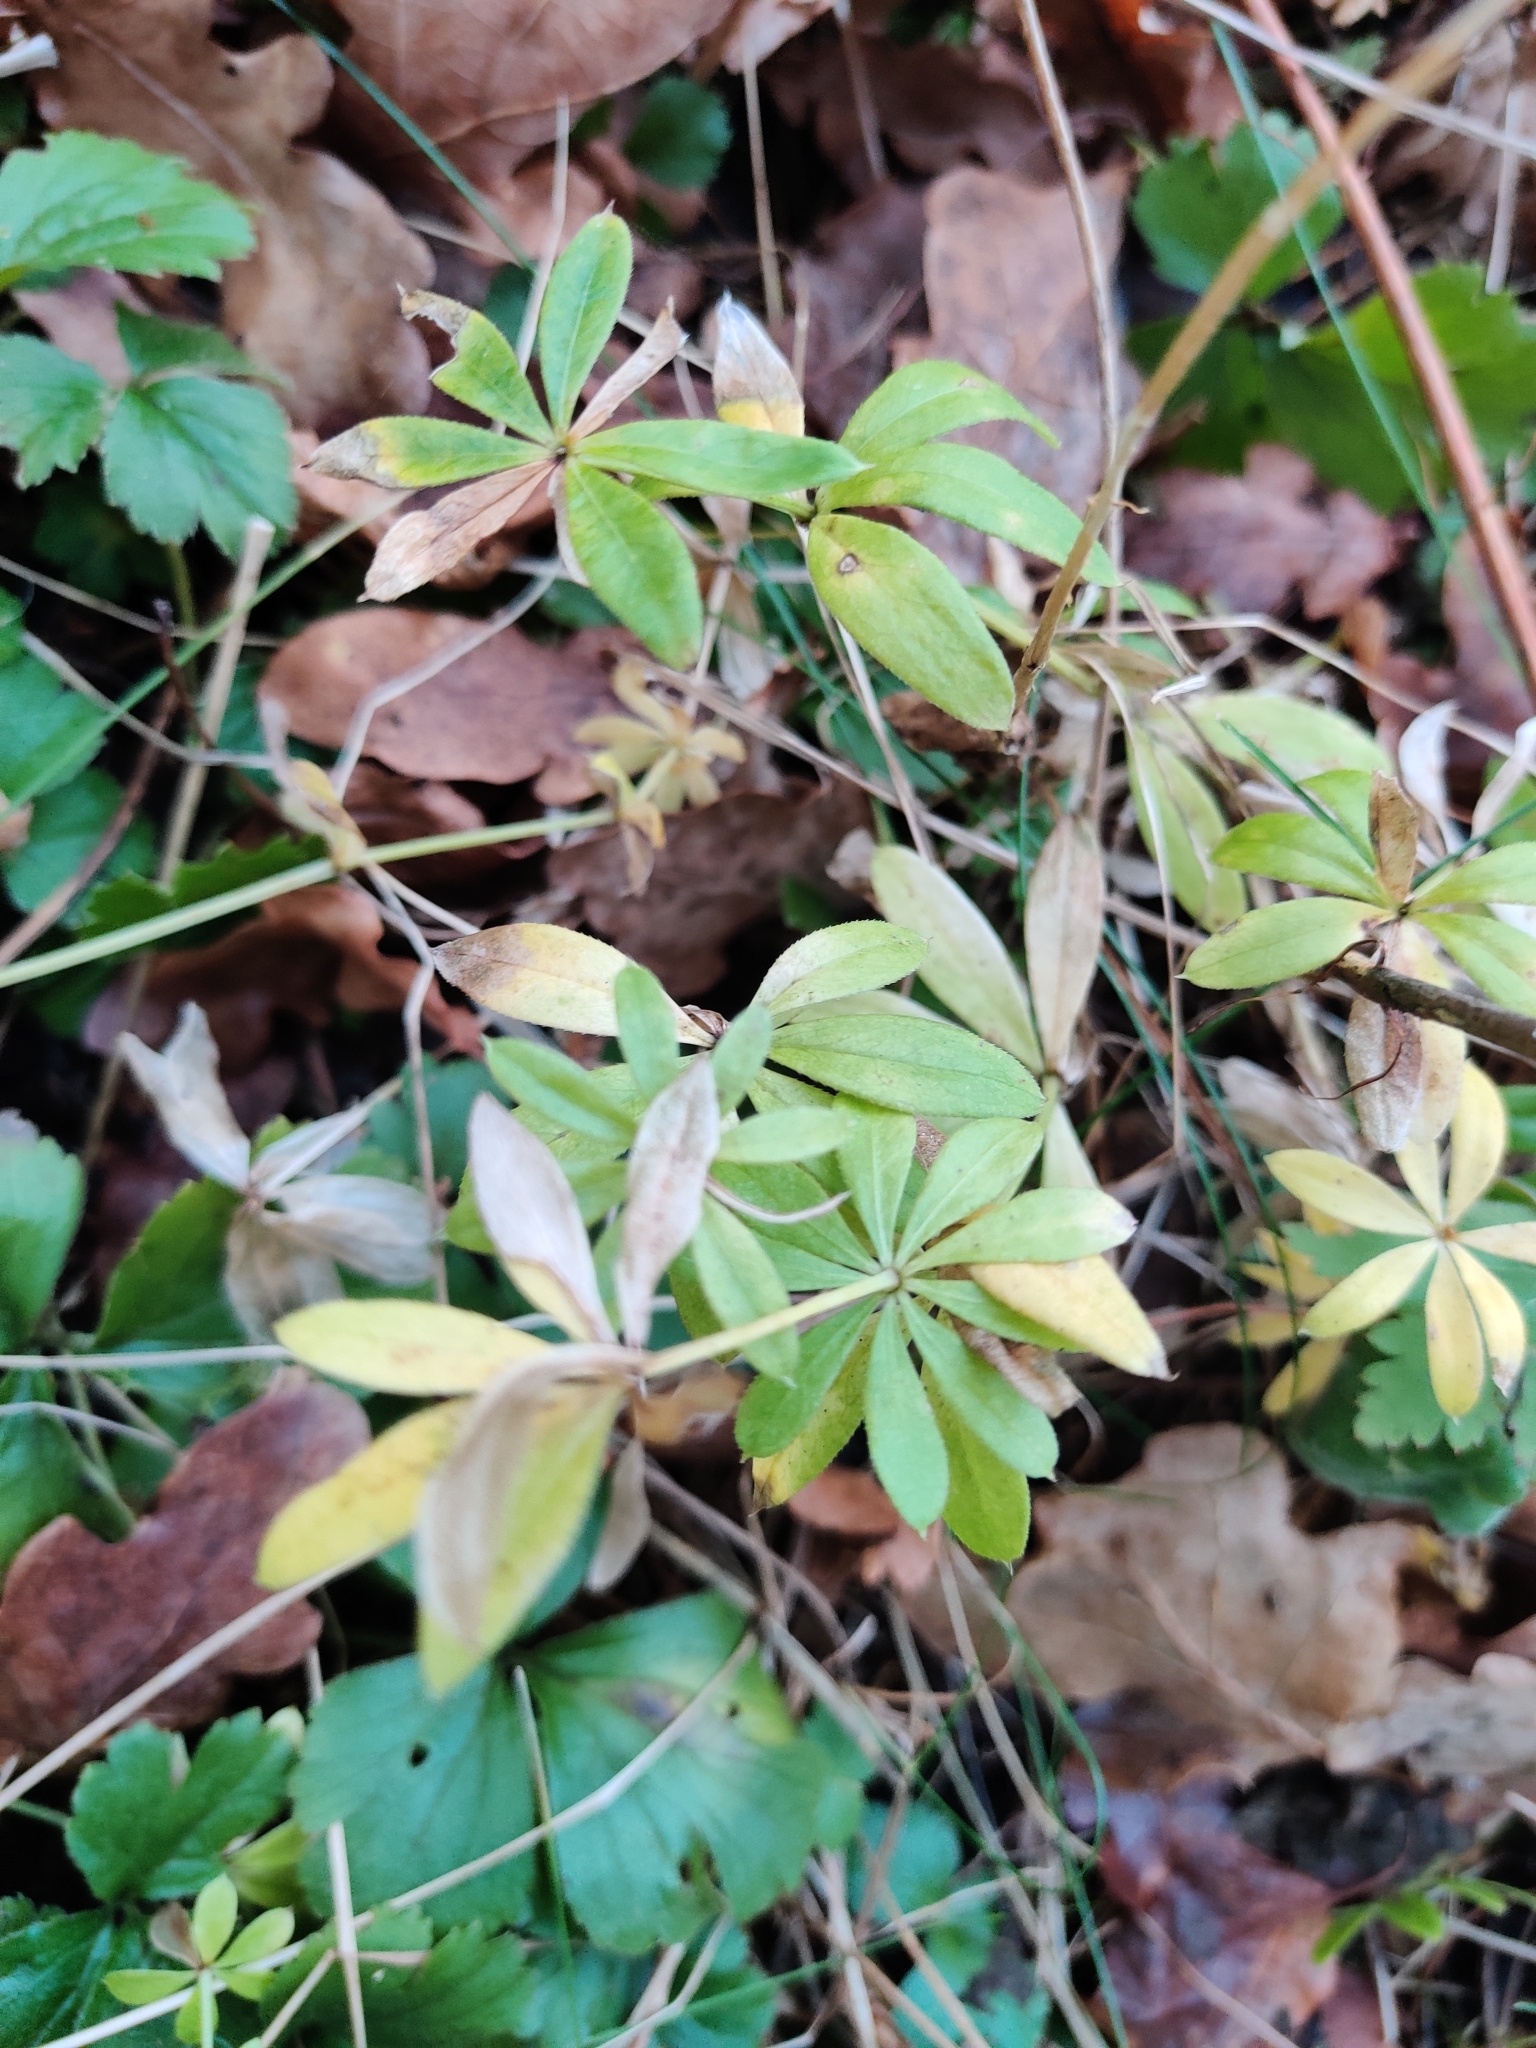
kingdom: Plantae
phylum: Tracheophyta
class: Magnoliopsida
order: Gentianales
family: Rubiaceae
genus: Galium
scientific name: Galium odoratum
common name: Sweet woodruff
